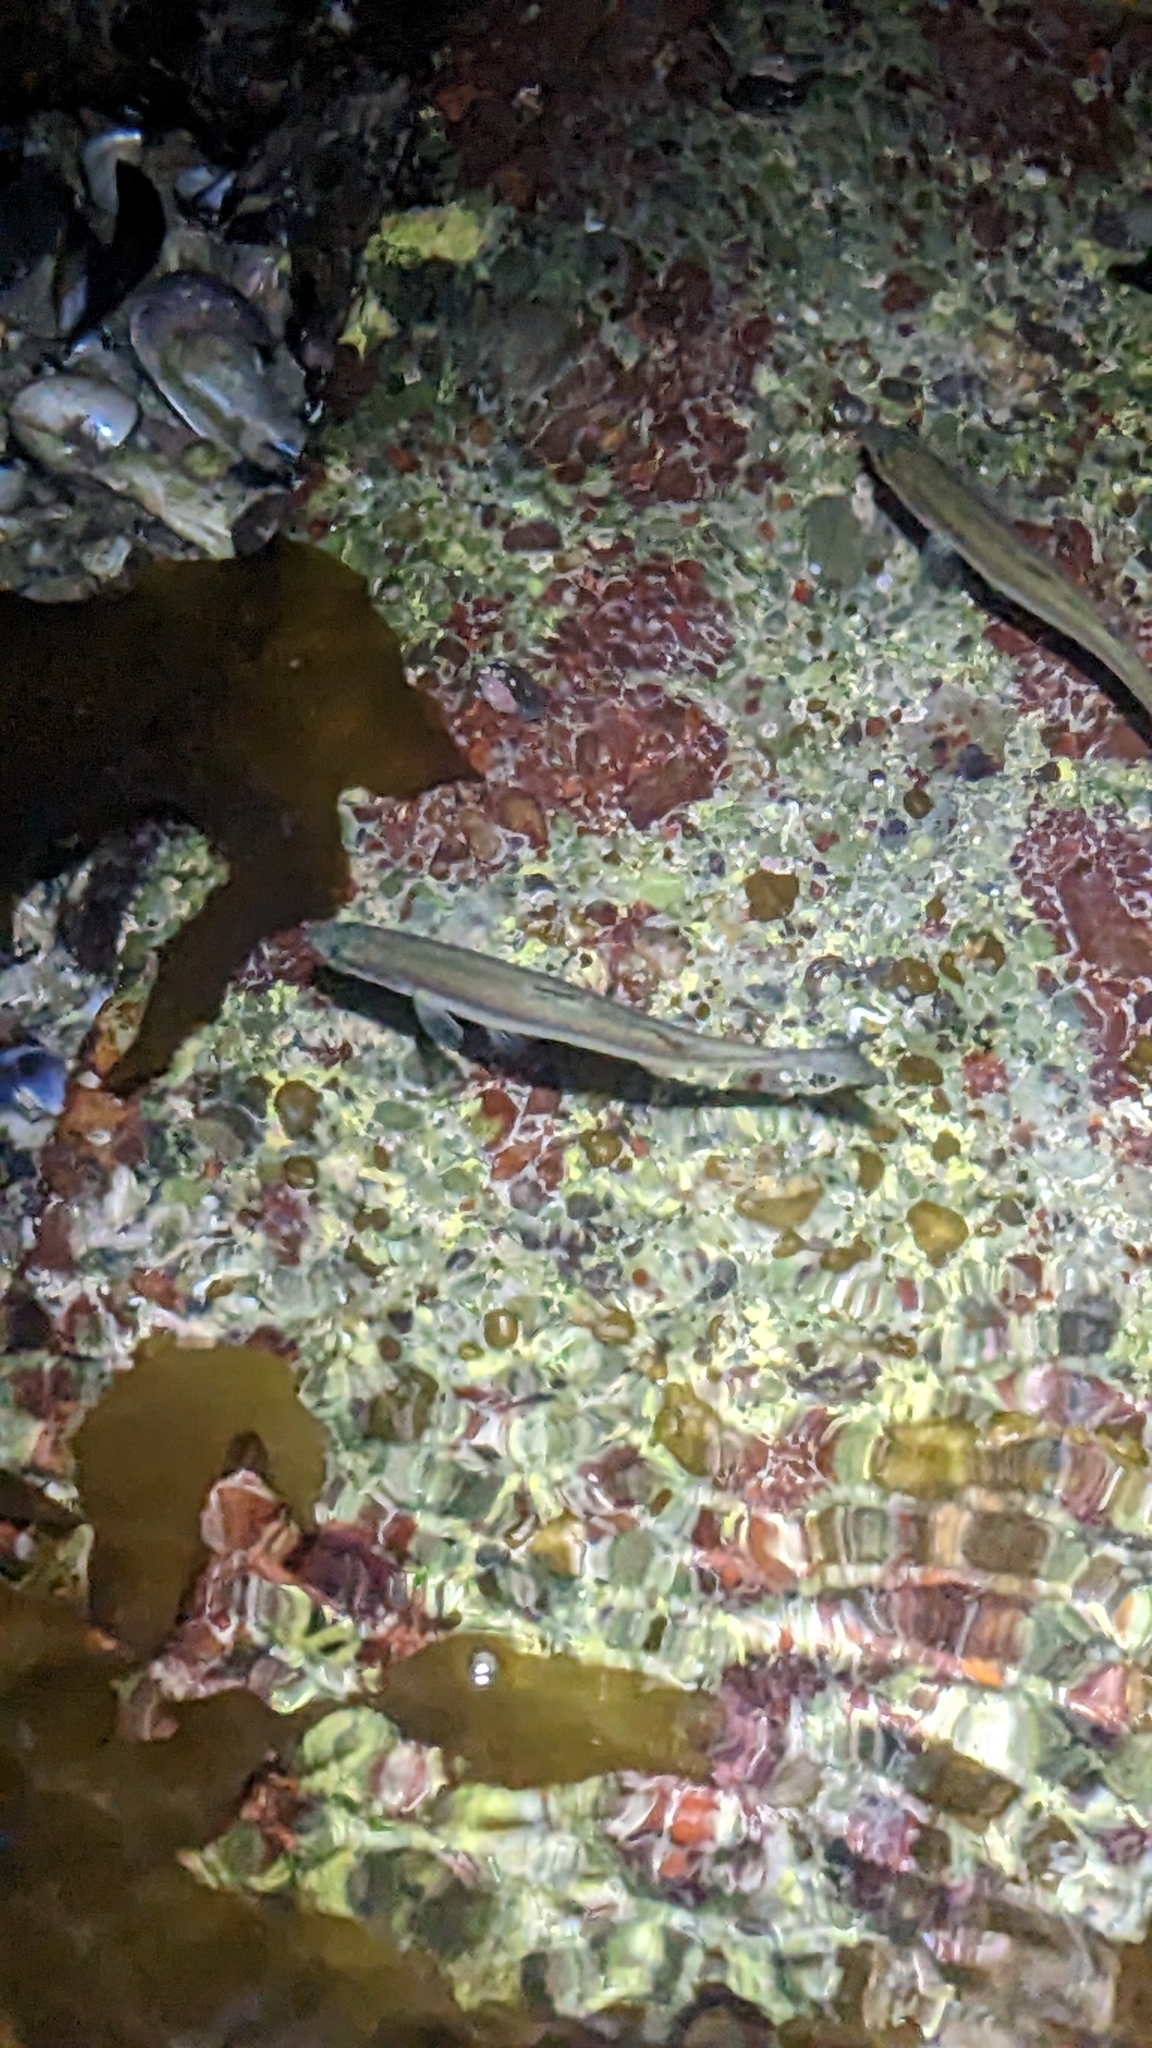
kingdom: Animalia
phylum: Chordata
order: Mugiliformes
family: Mugilidae
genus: Aldrichetta
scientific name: Aldrichetta forsteri
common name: Yellow-eye mullet
